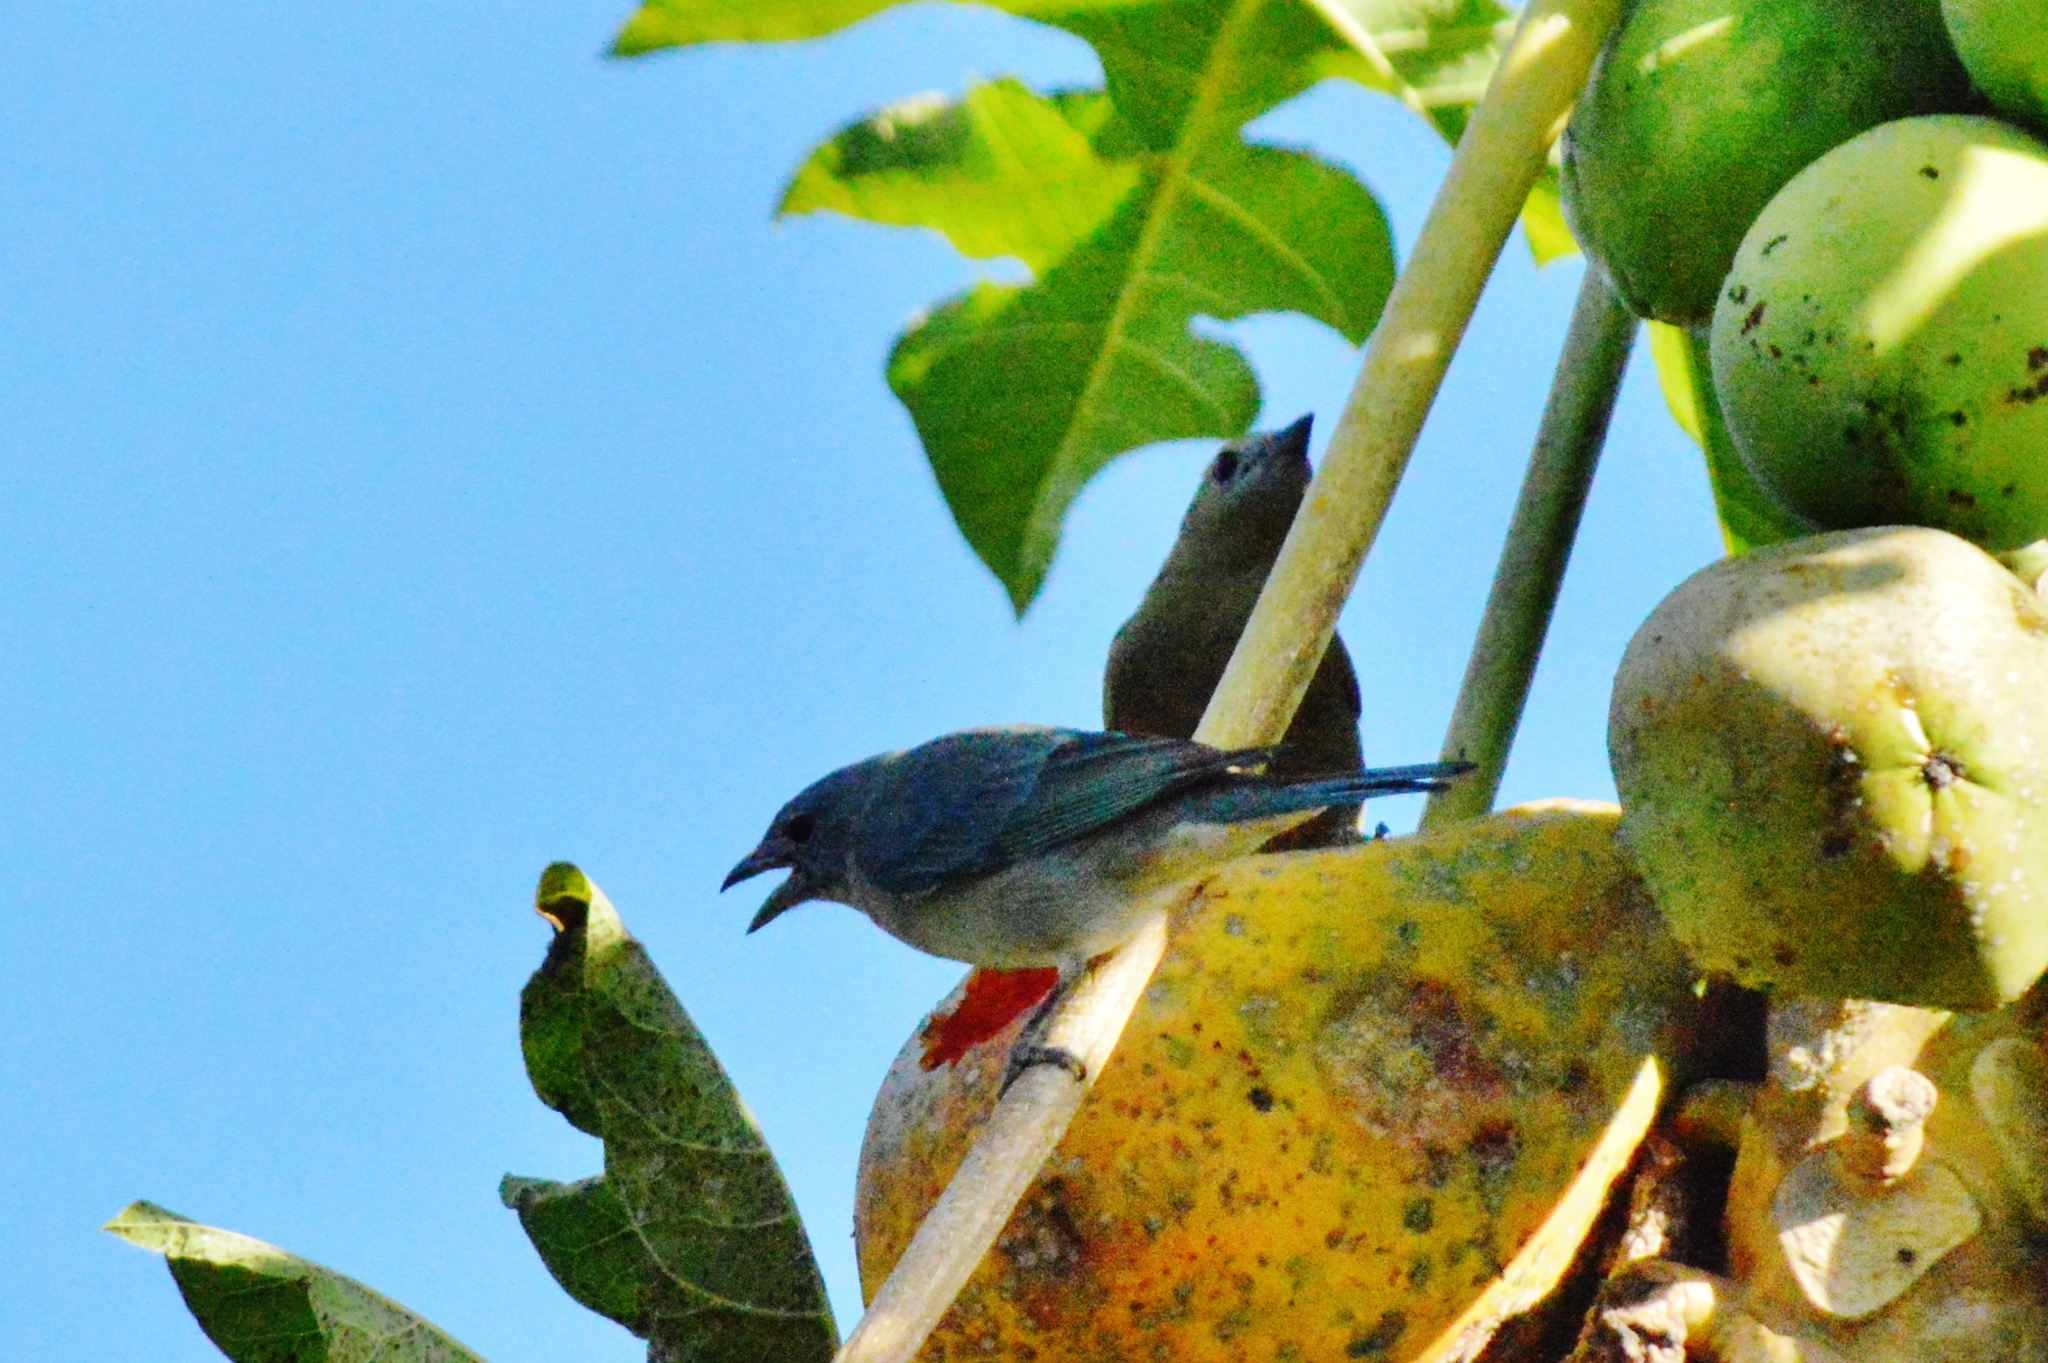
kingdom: Animalia
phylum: Chordata
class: Aves
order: Passeriformes
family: Thraupidae
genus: Thraupis
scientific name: Thraupis palmarum
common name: Palm tanager
